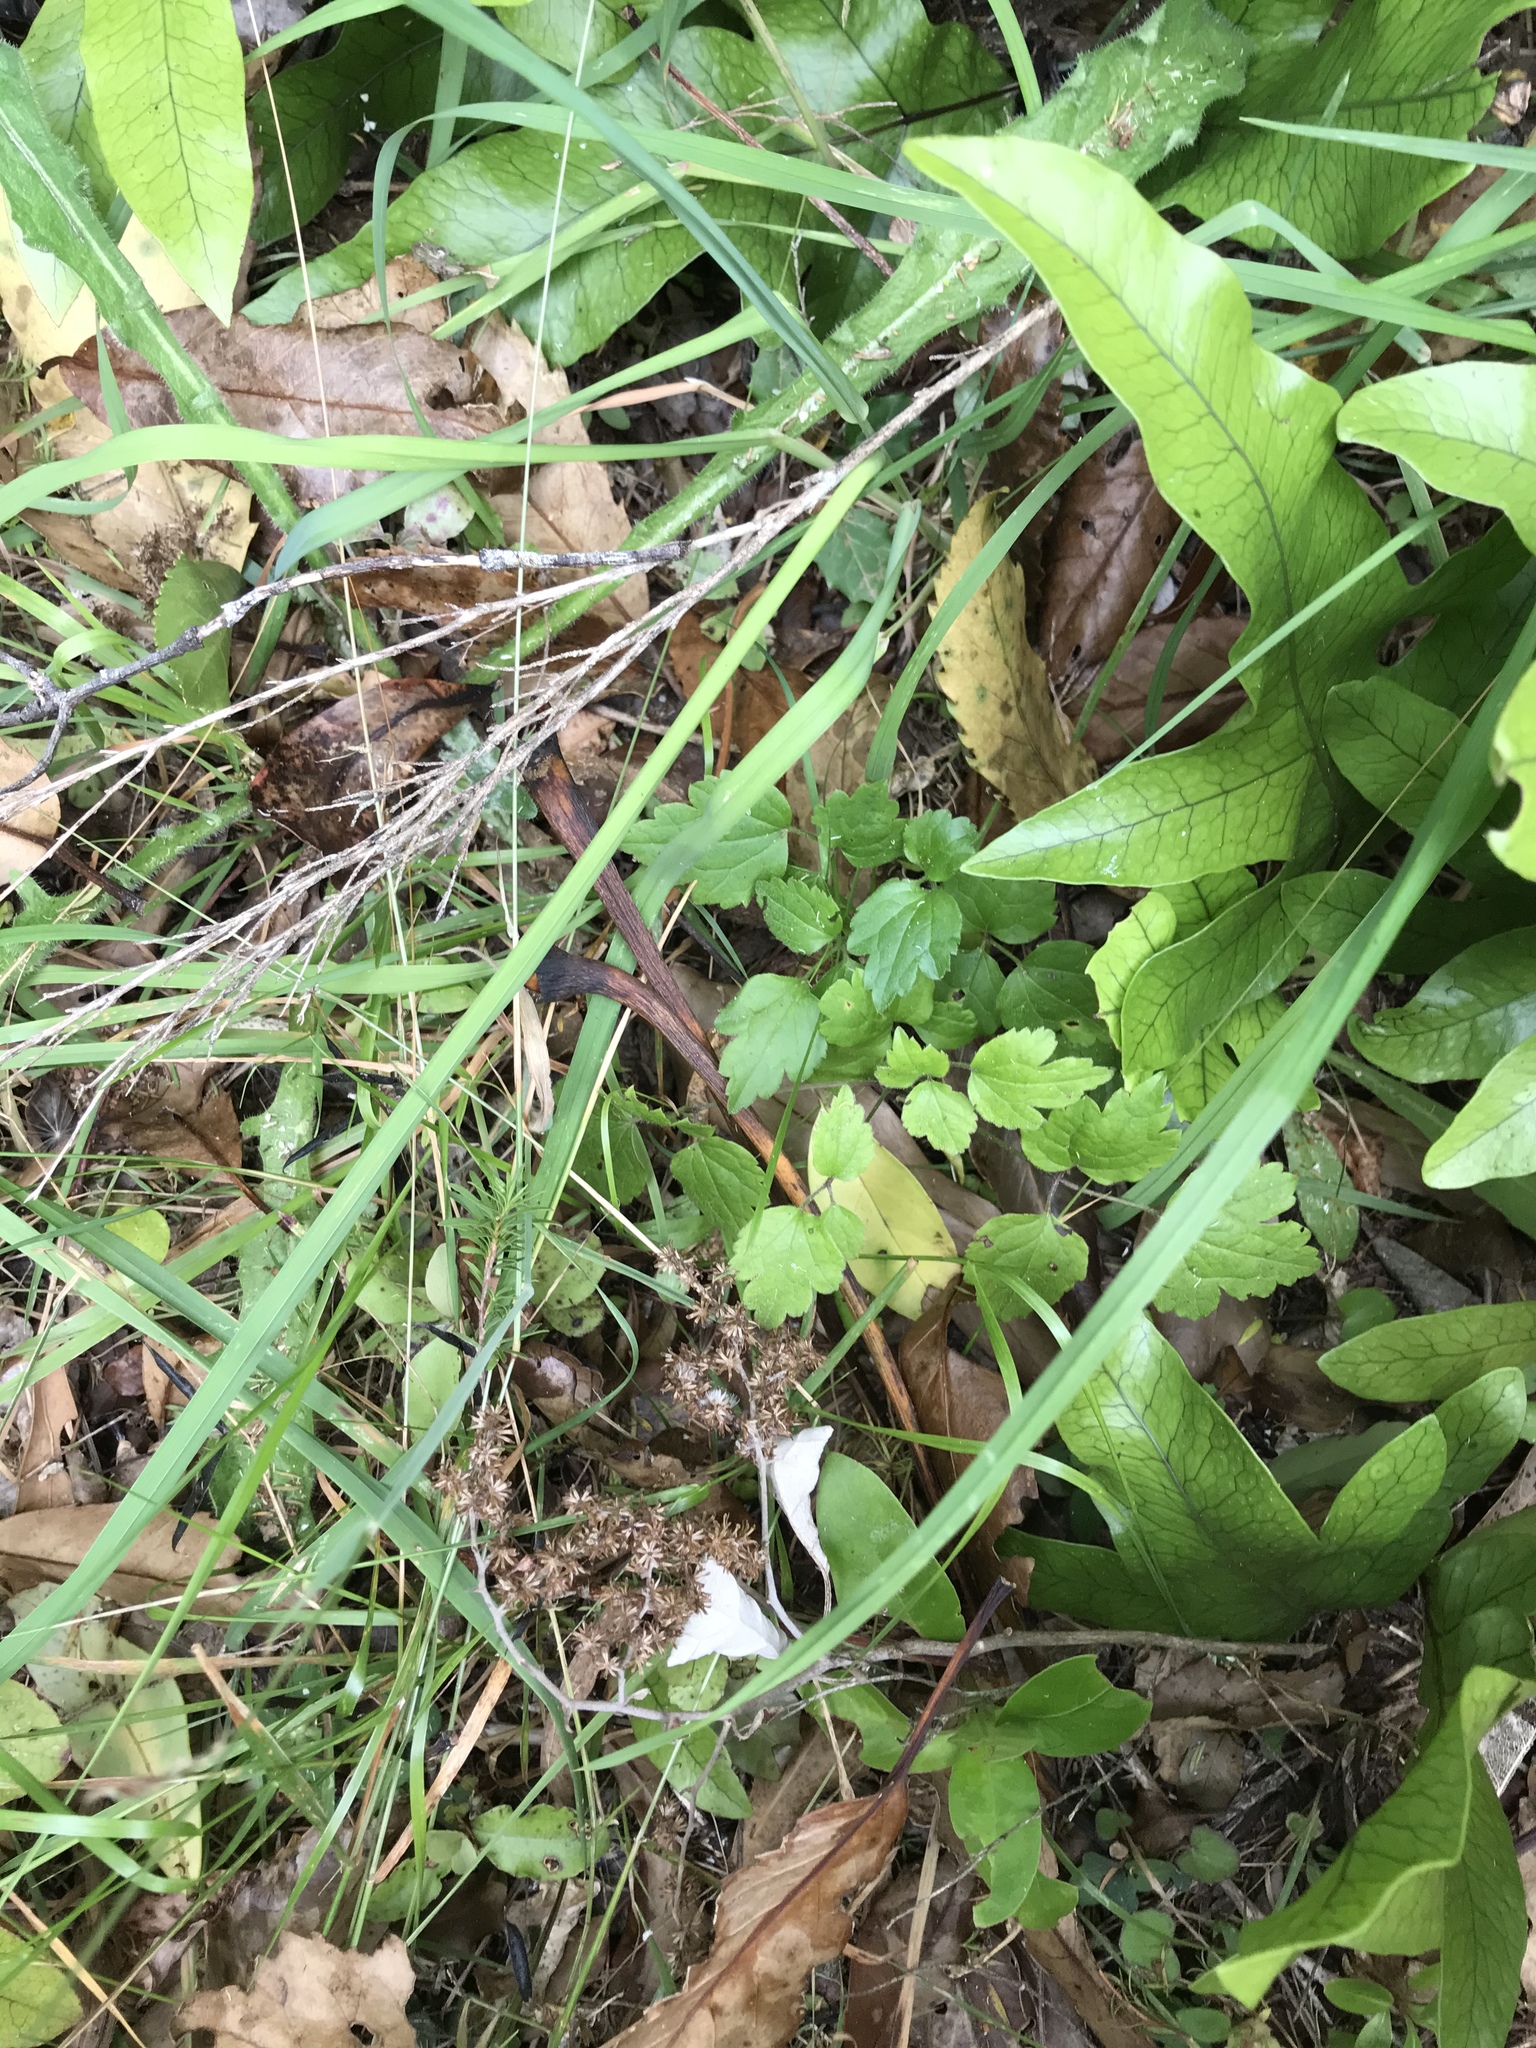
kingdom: Plantae
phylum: Tracheophyta
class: Magnoliopsida
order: Ranunculales
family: Ranunculaceae
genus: Clematis
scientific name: Clematis vitalba
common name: Evergreen clematis
